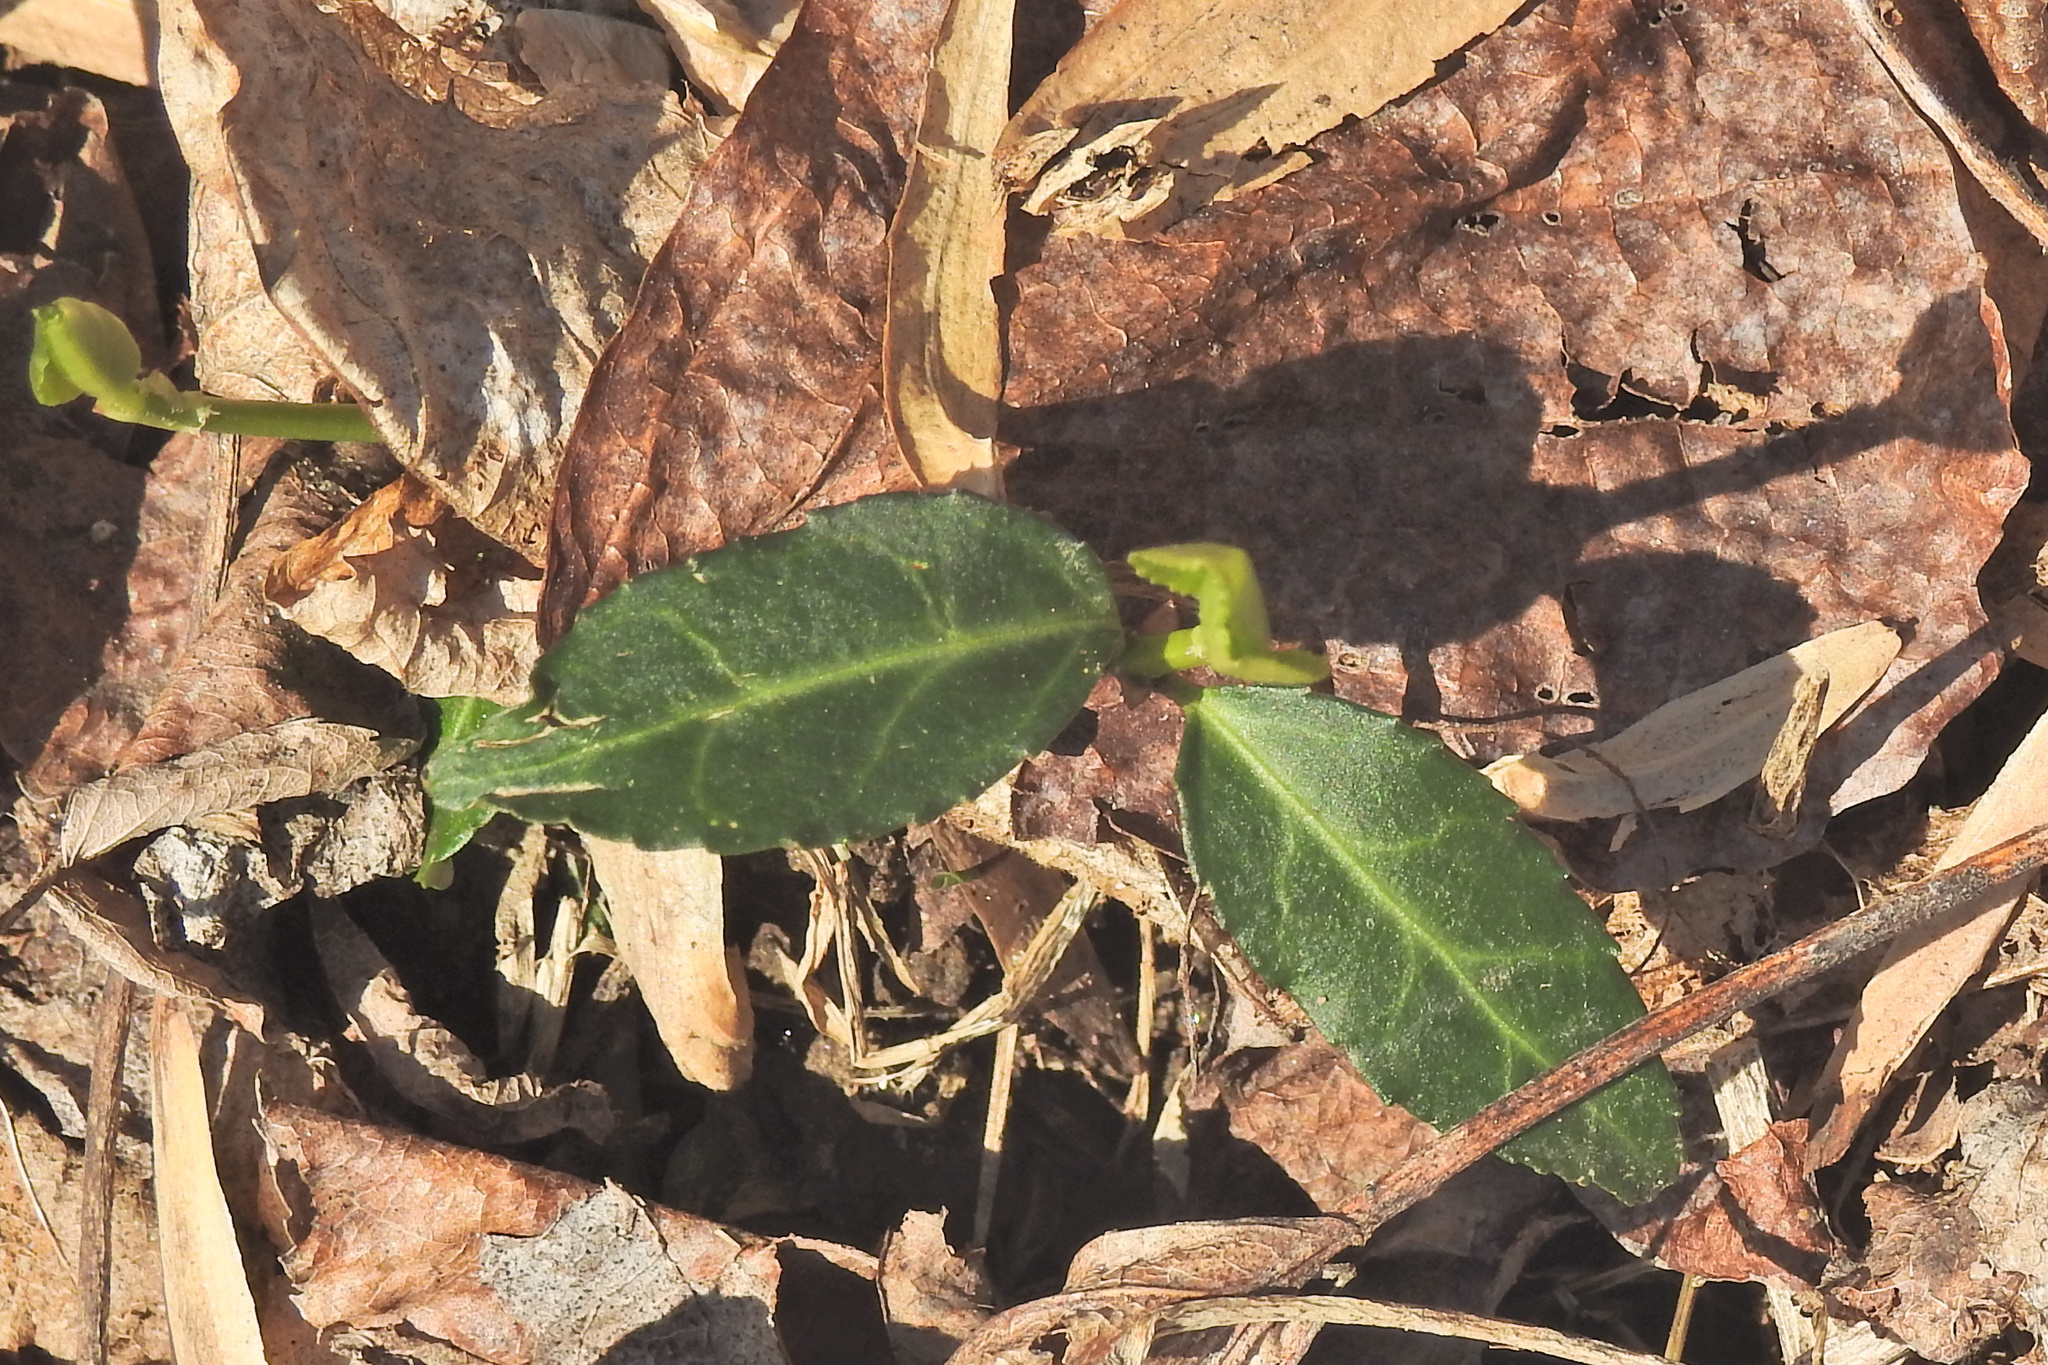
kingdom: Plantae
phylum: Tracheophyta
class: Magnoliopsida
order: Celastrales
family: Celastraceae
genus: Euonymus
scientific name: Euonymus fortunei
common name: Climbing euonymus
